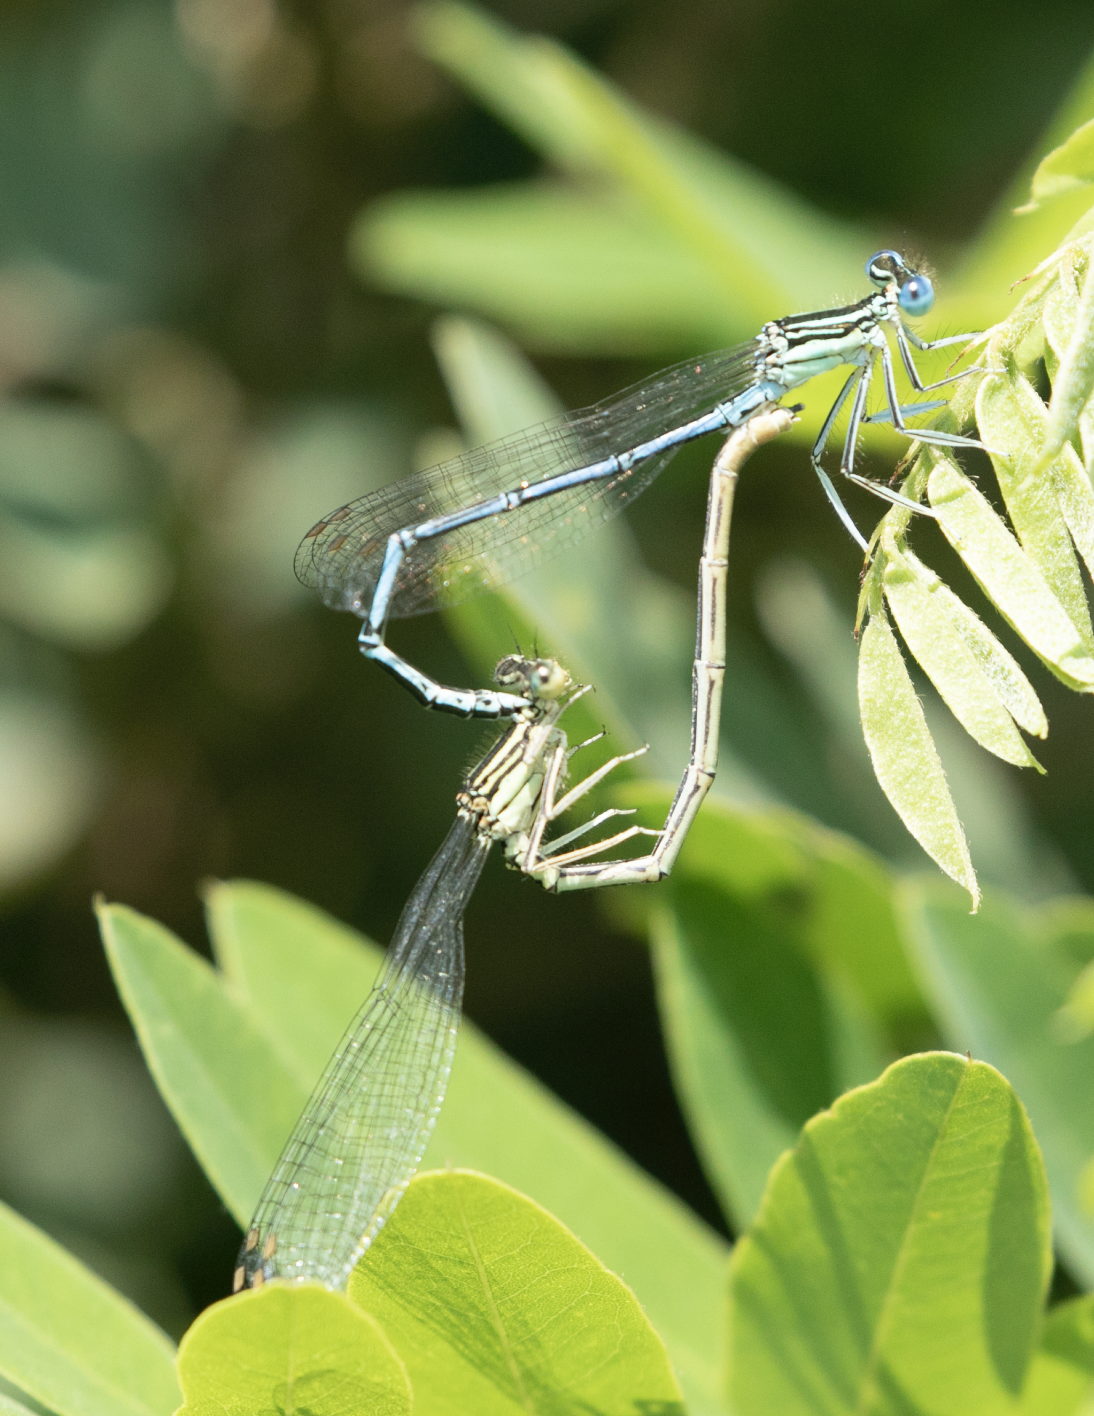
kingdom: Animalia
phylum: Arthropoda
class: Insecta
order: Odonata
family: Platycnemididae
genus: Platycnemis
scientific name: Platycnemis pennipes
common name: White-legged damselfly
